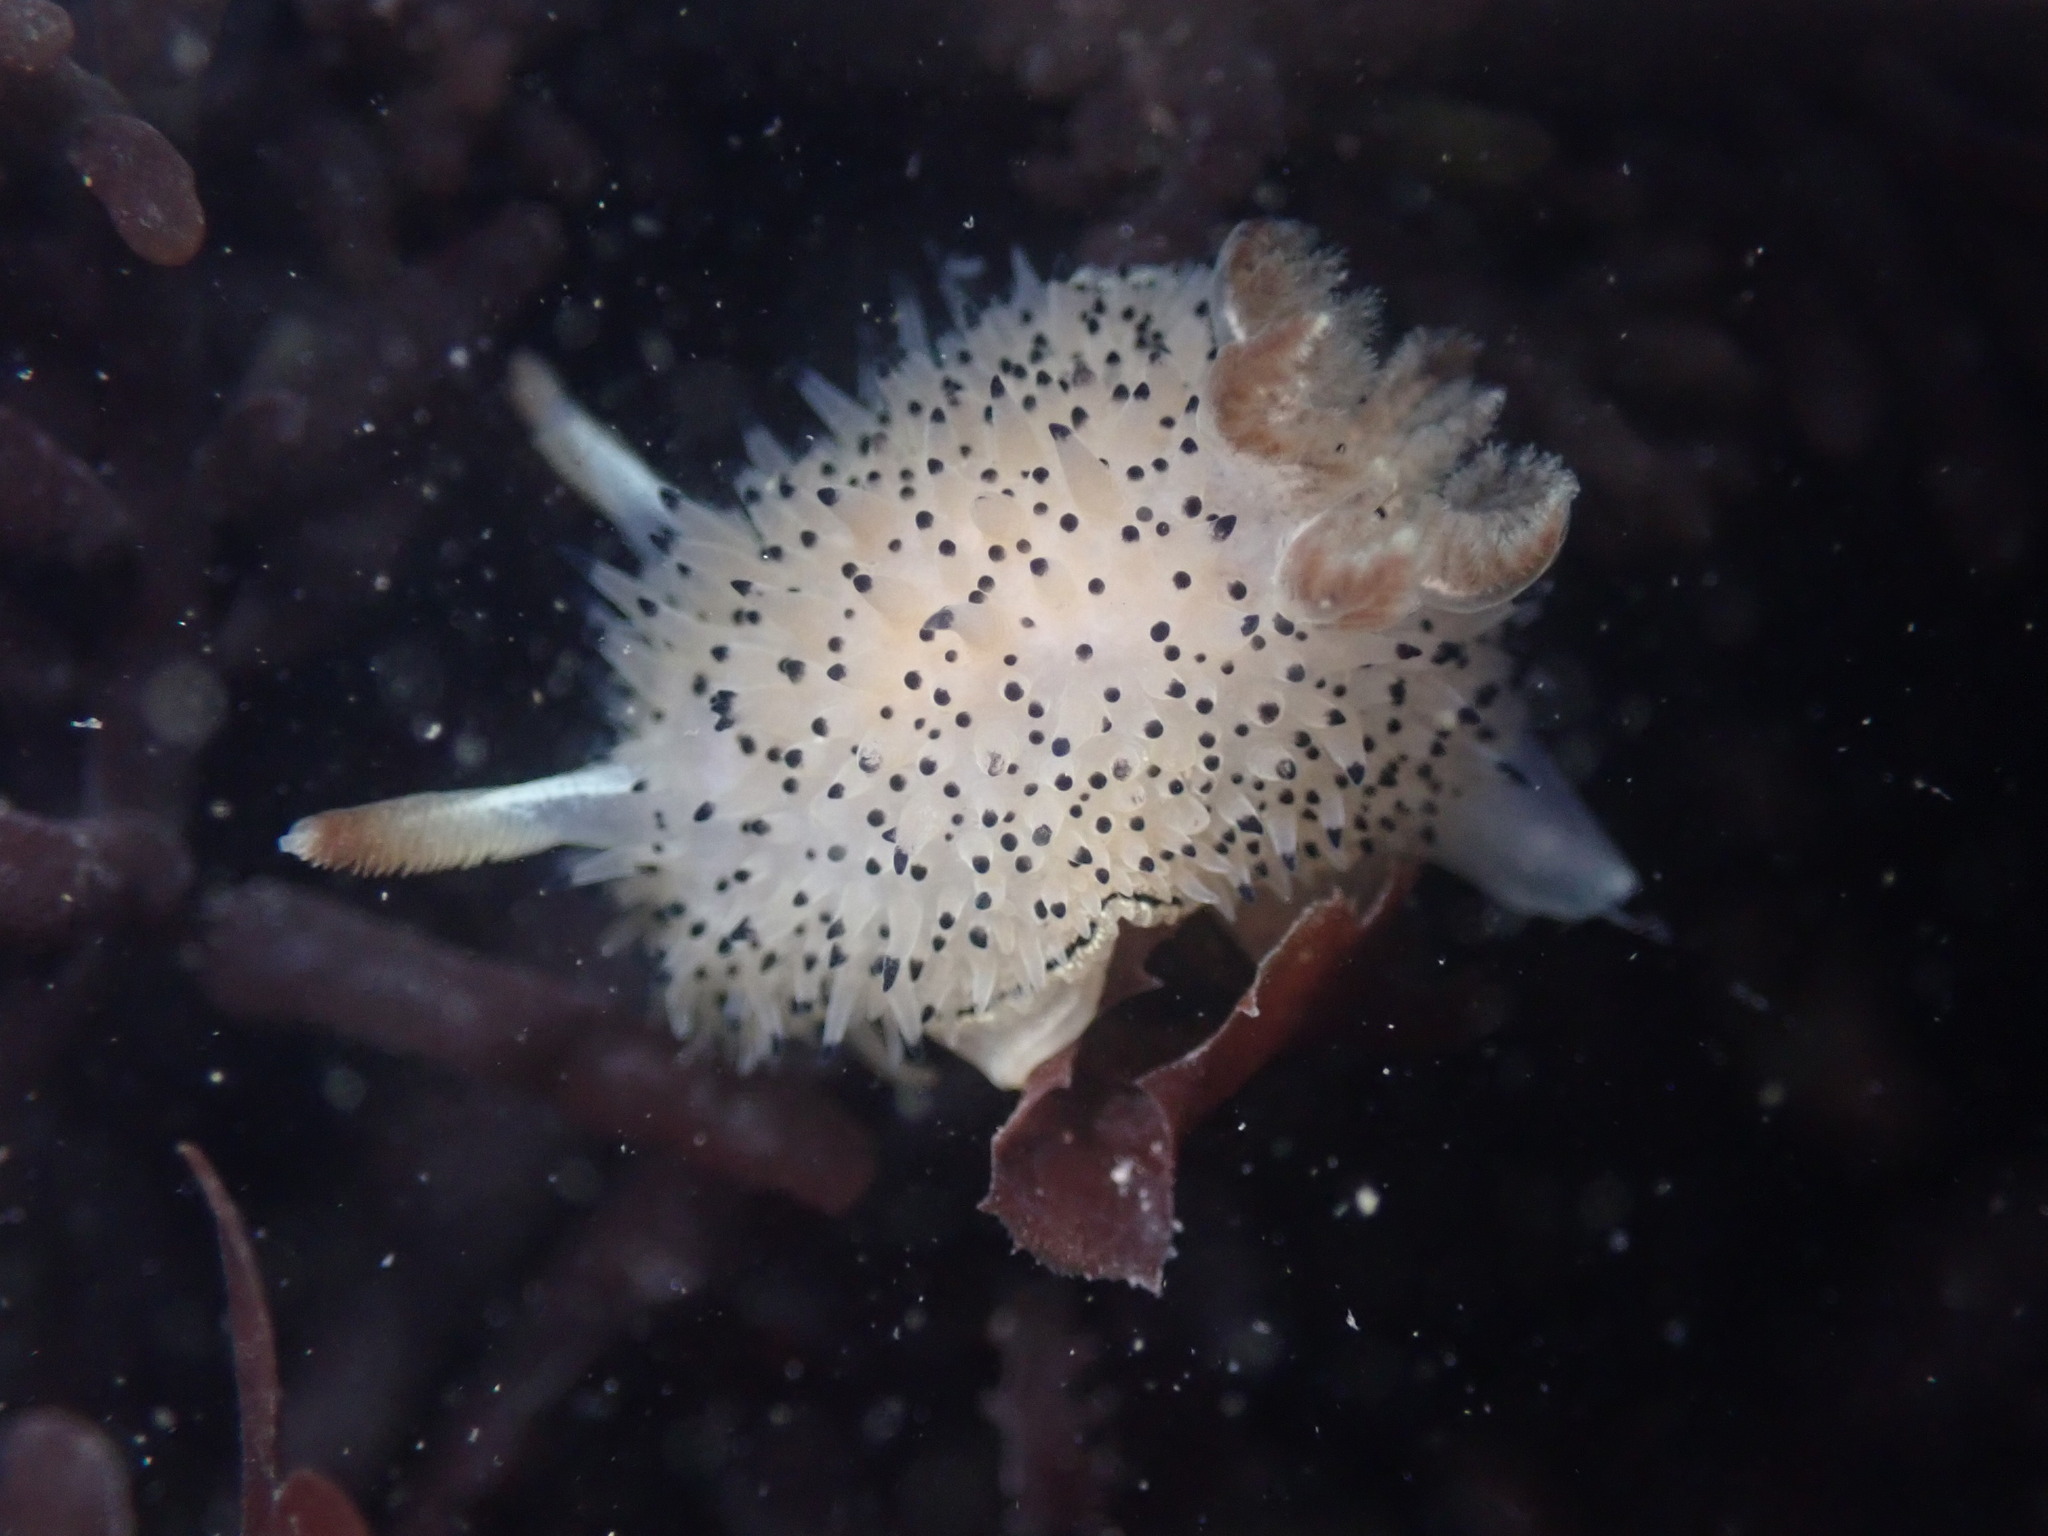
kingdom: Animalia
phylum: Mollusca
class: Gastropoda
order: Nudibranchia
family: Onchidorididae
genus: Acanthodoris
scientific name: Acanthodoris rhodoceras
